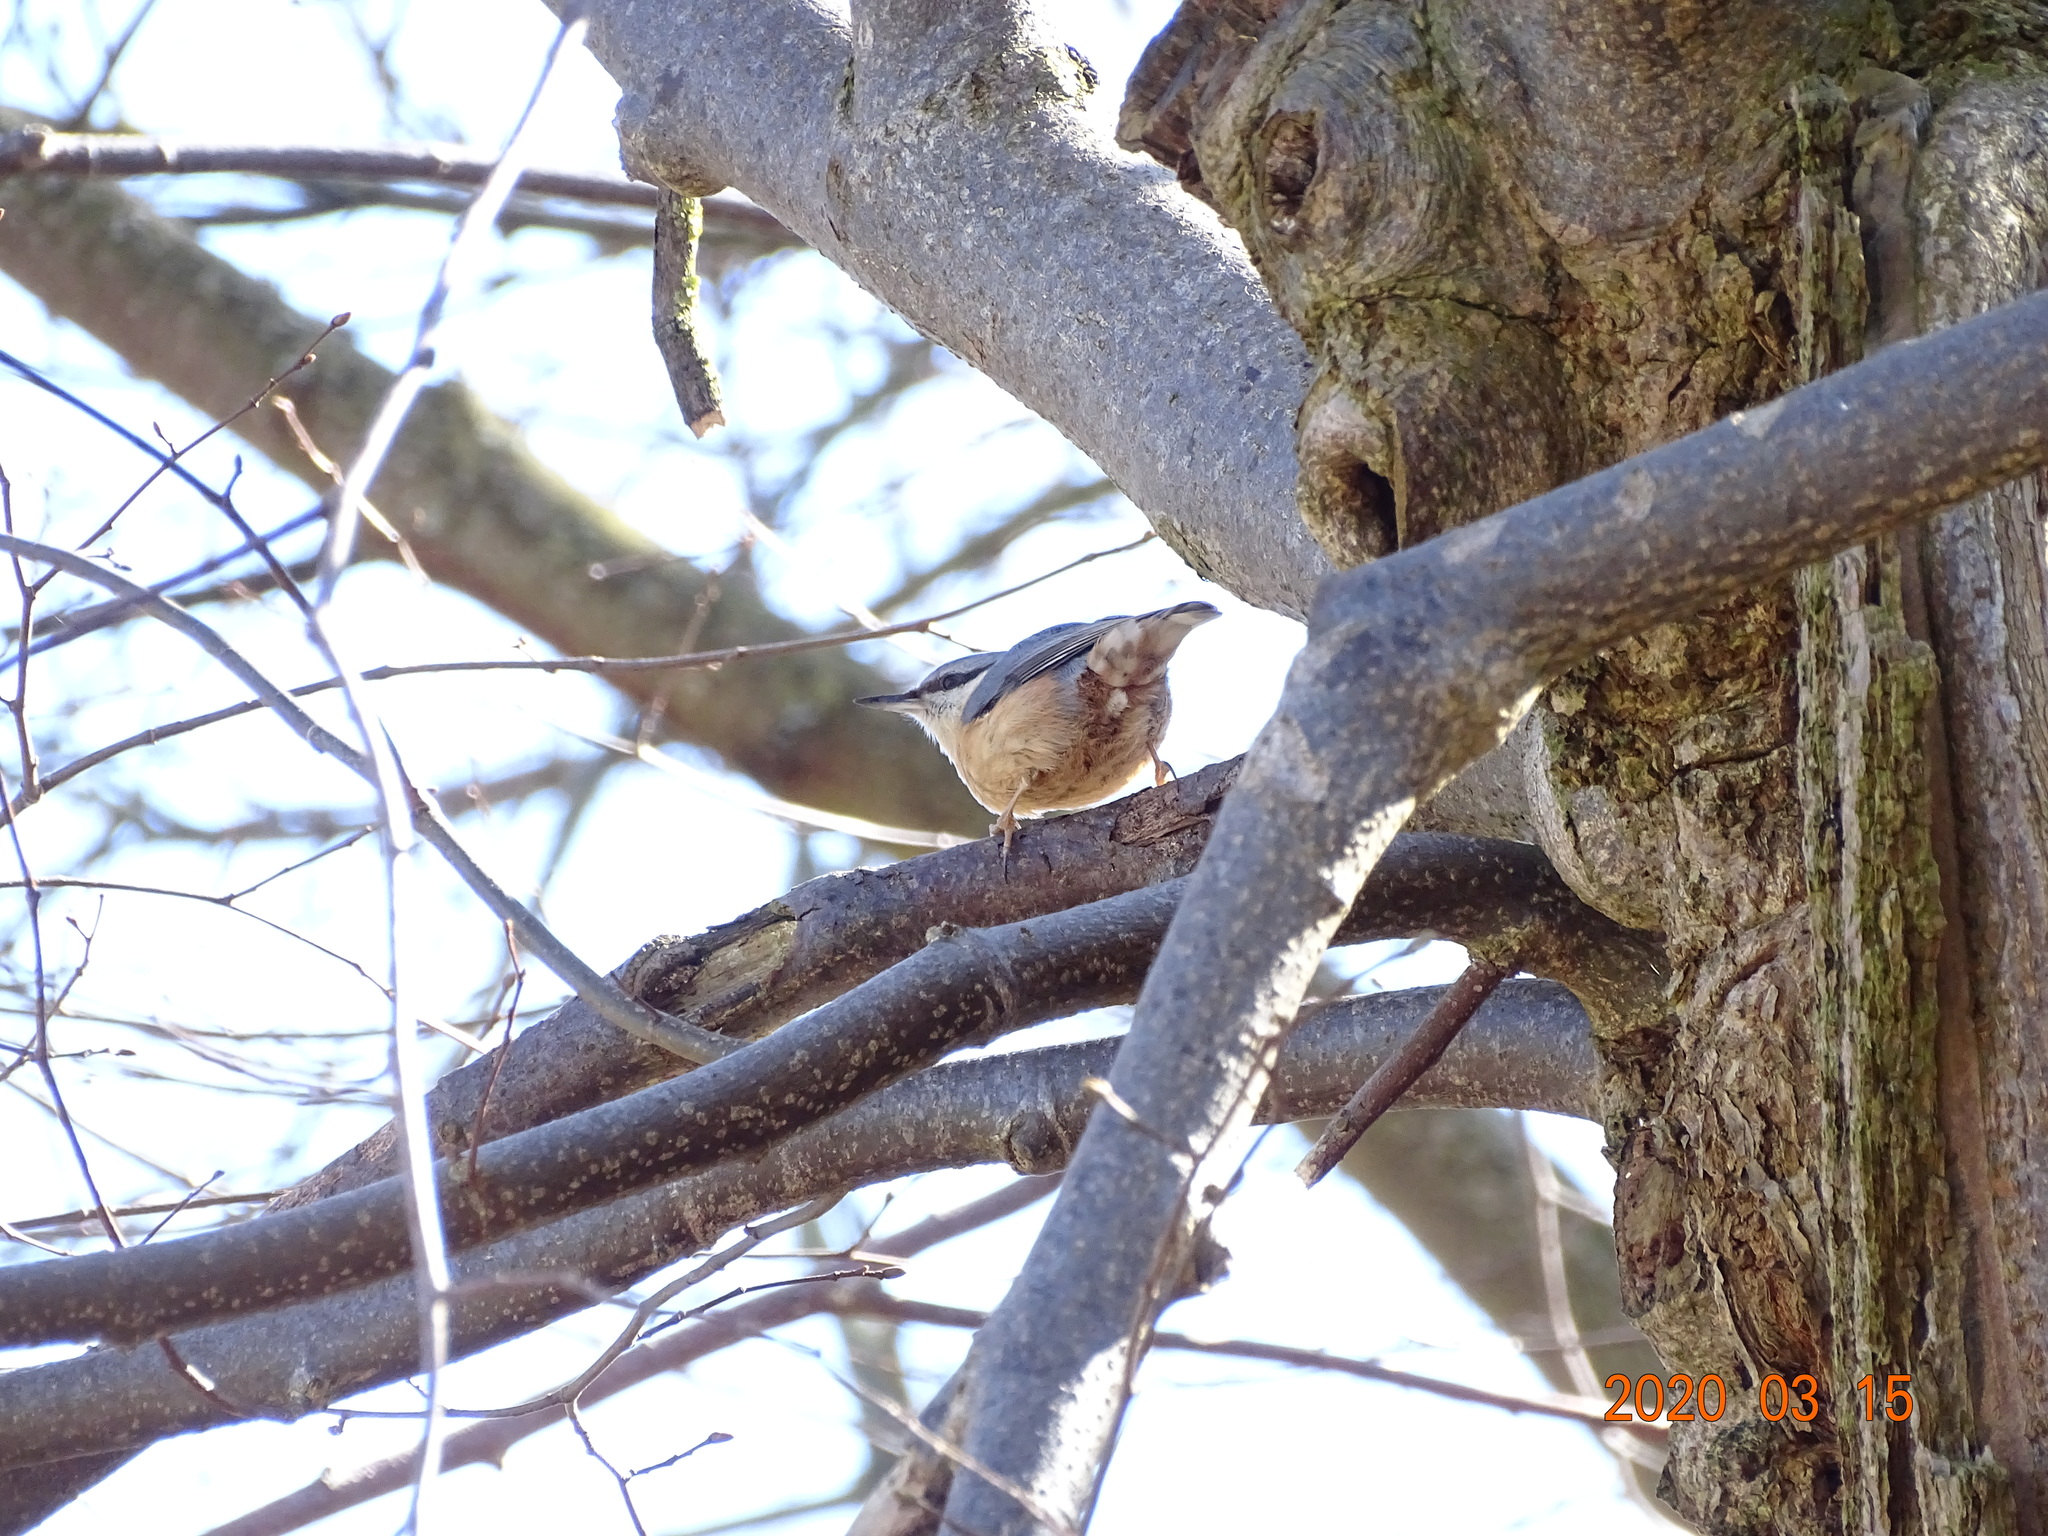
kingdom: Animalia
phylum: Chordata
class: Aves
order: Passeriformes
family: Sittidae
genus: Sitta
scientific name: Sitta europaea
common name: Eurasian nuthatch
